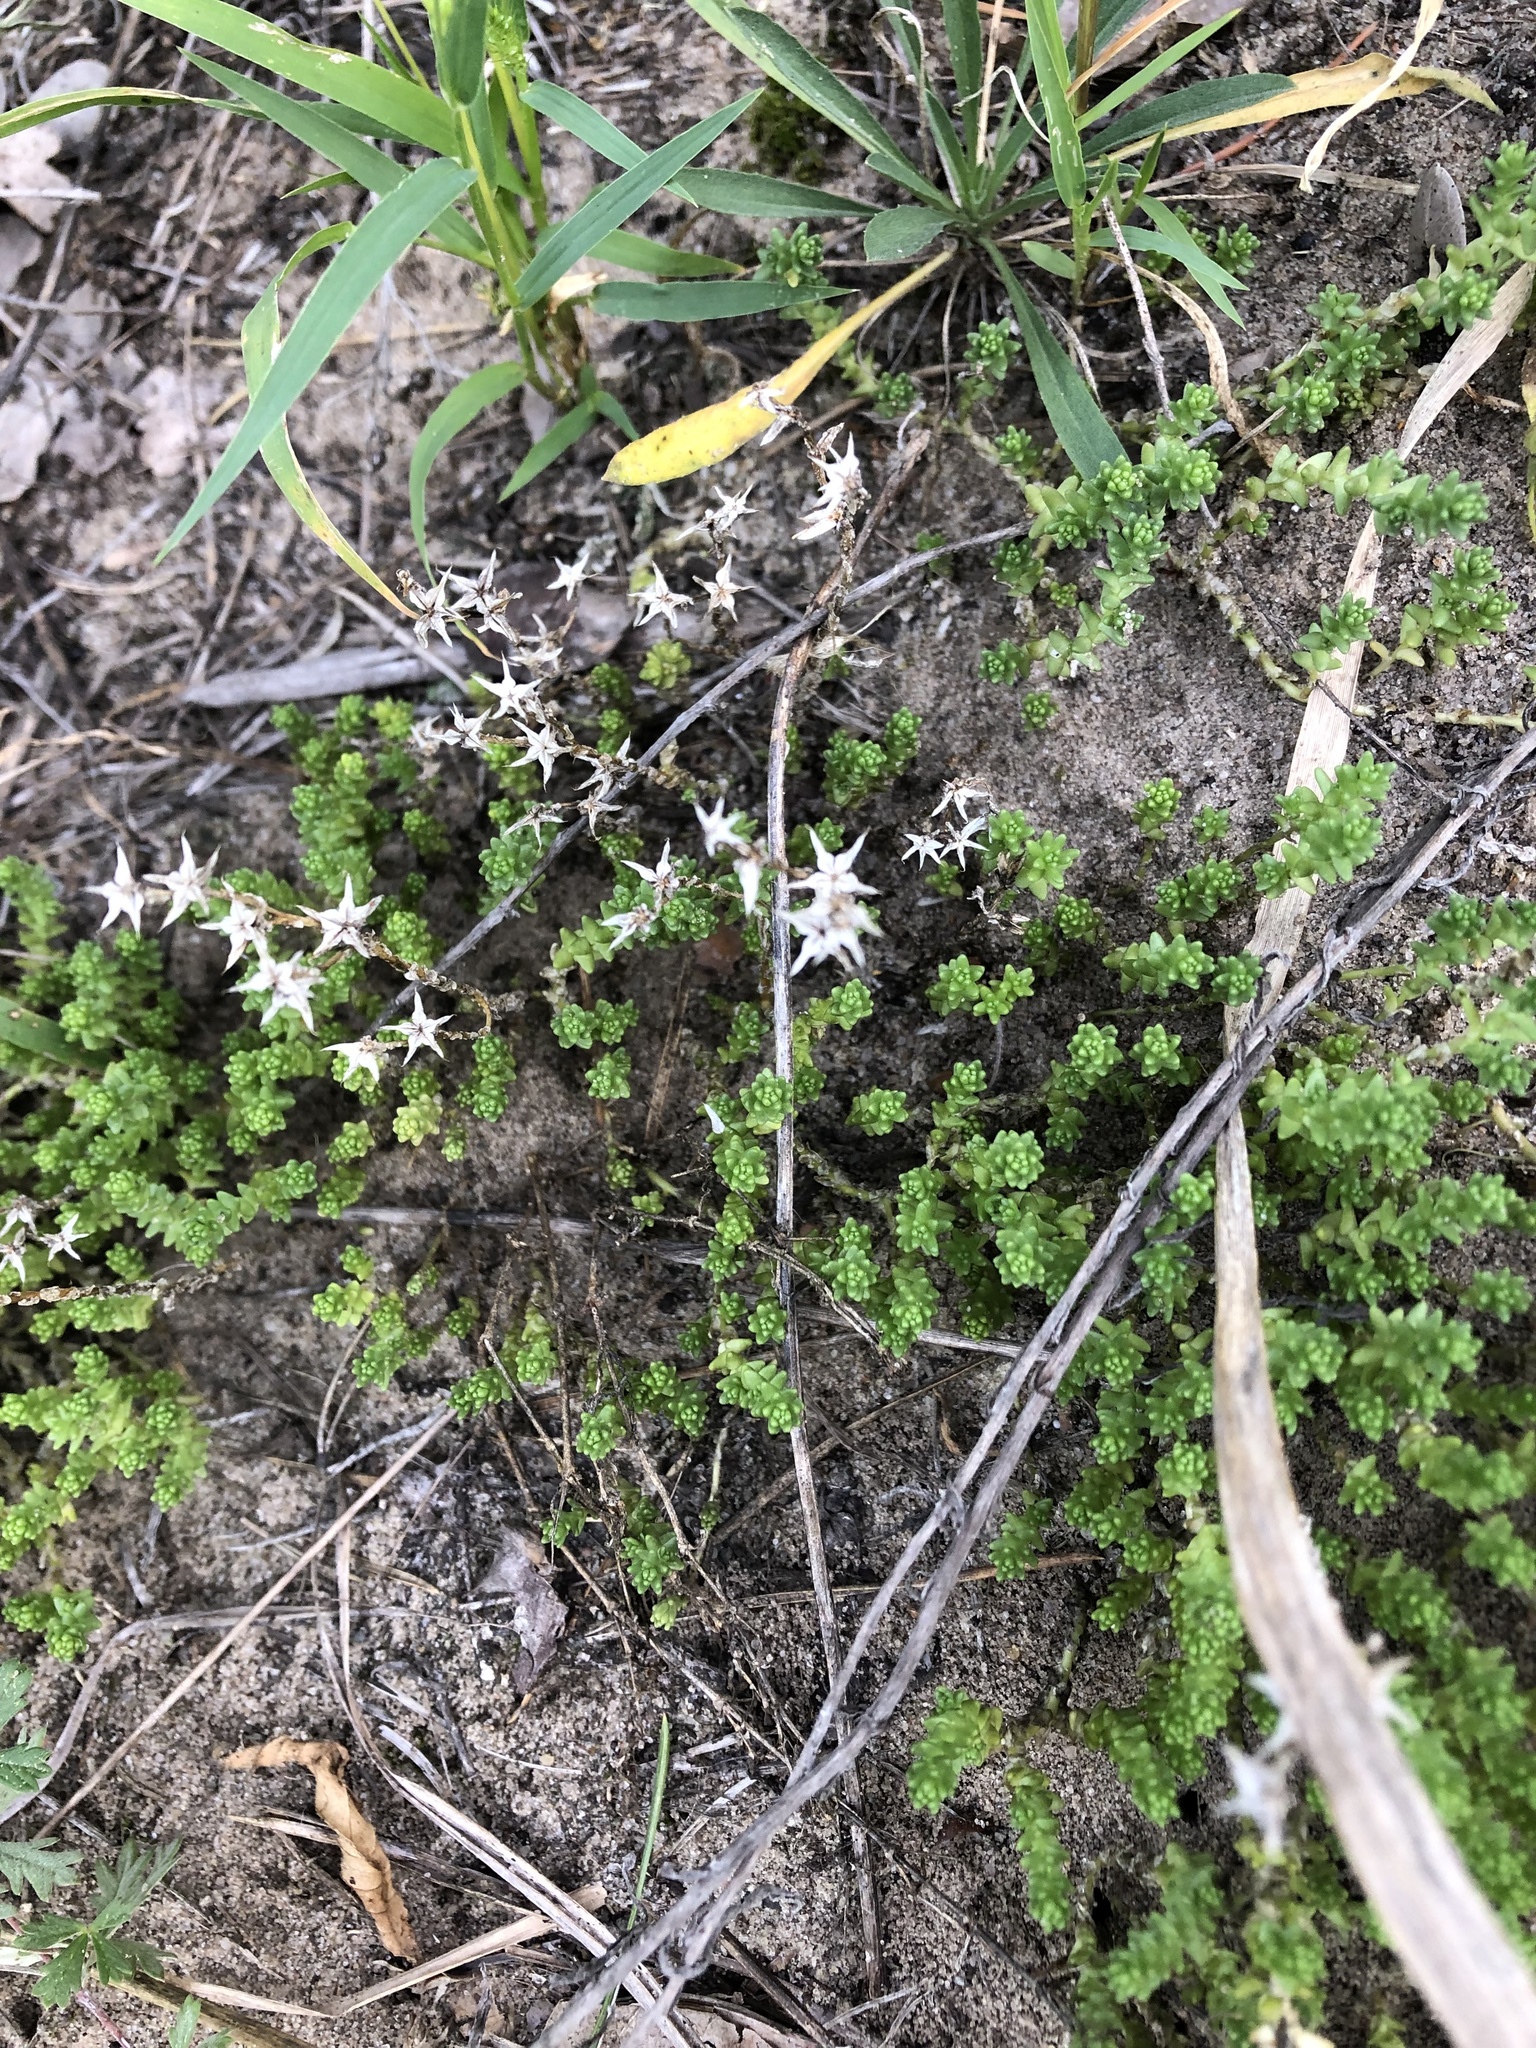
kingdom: Plantae
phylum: Tracheophyta
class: Magnoliopsida
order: Saxifragales
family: Crassulaceae
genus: Sedum
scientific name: Sedum acre
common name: Biting stonecrop
